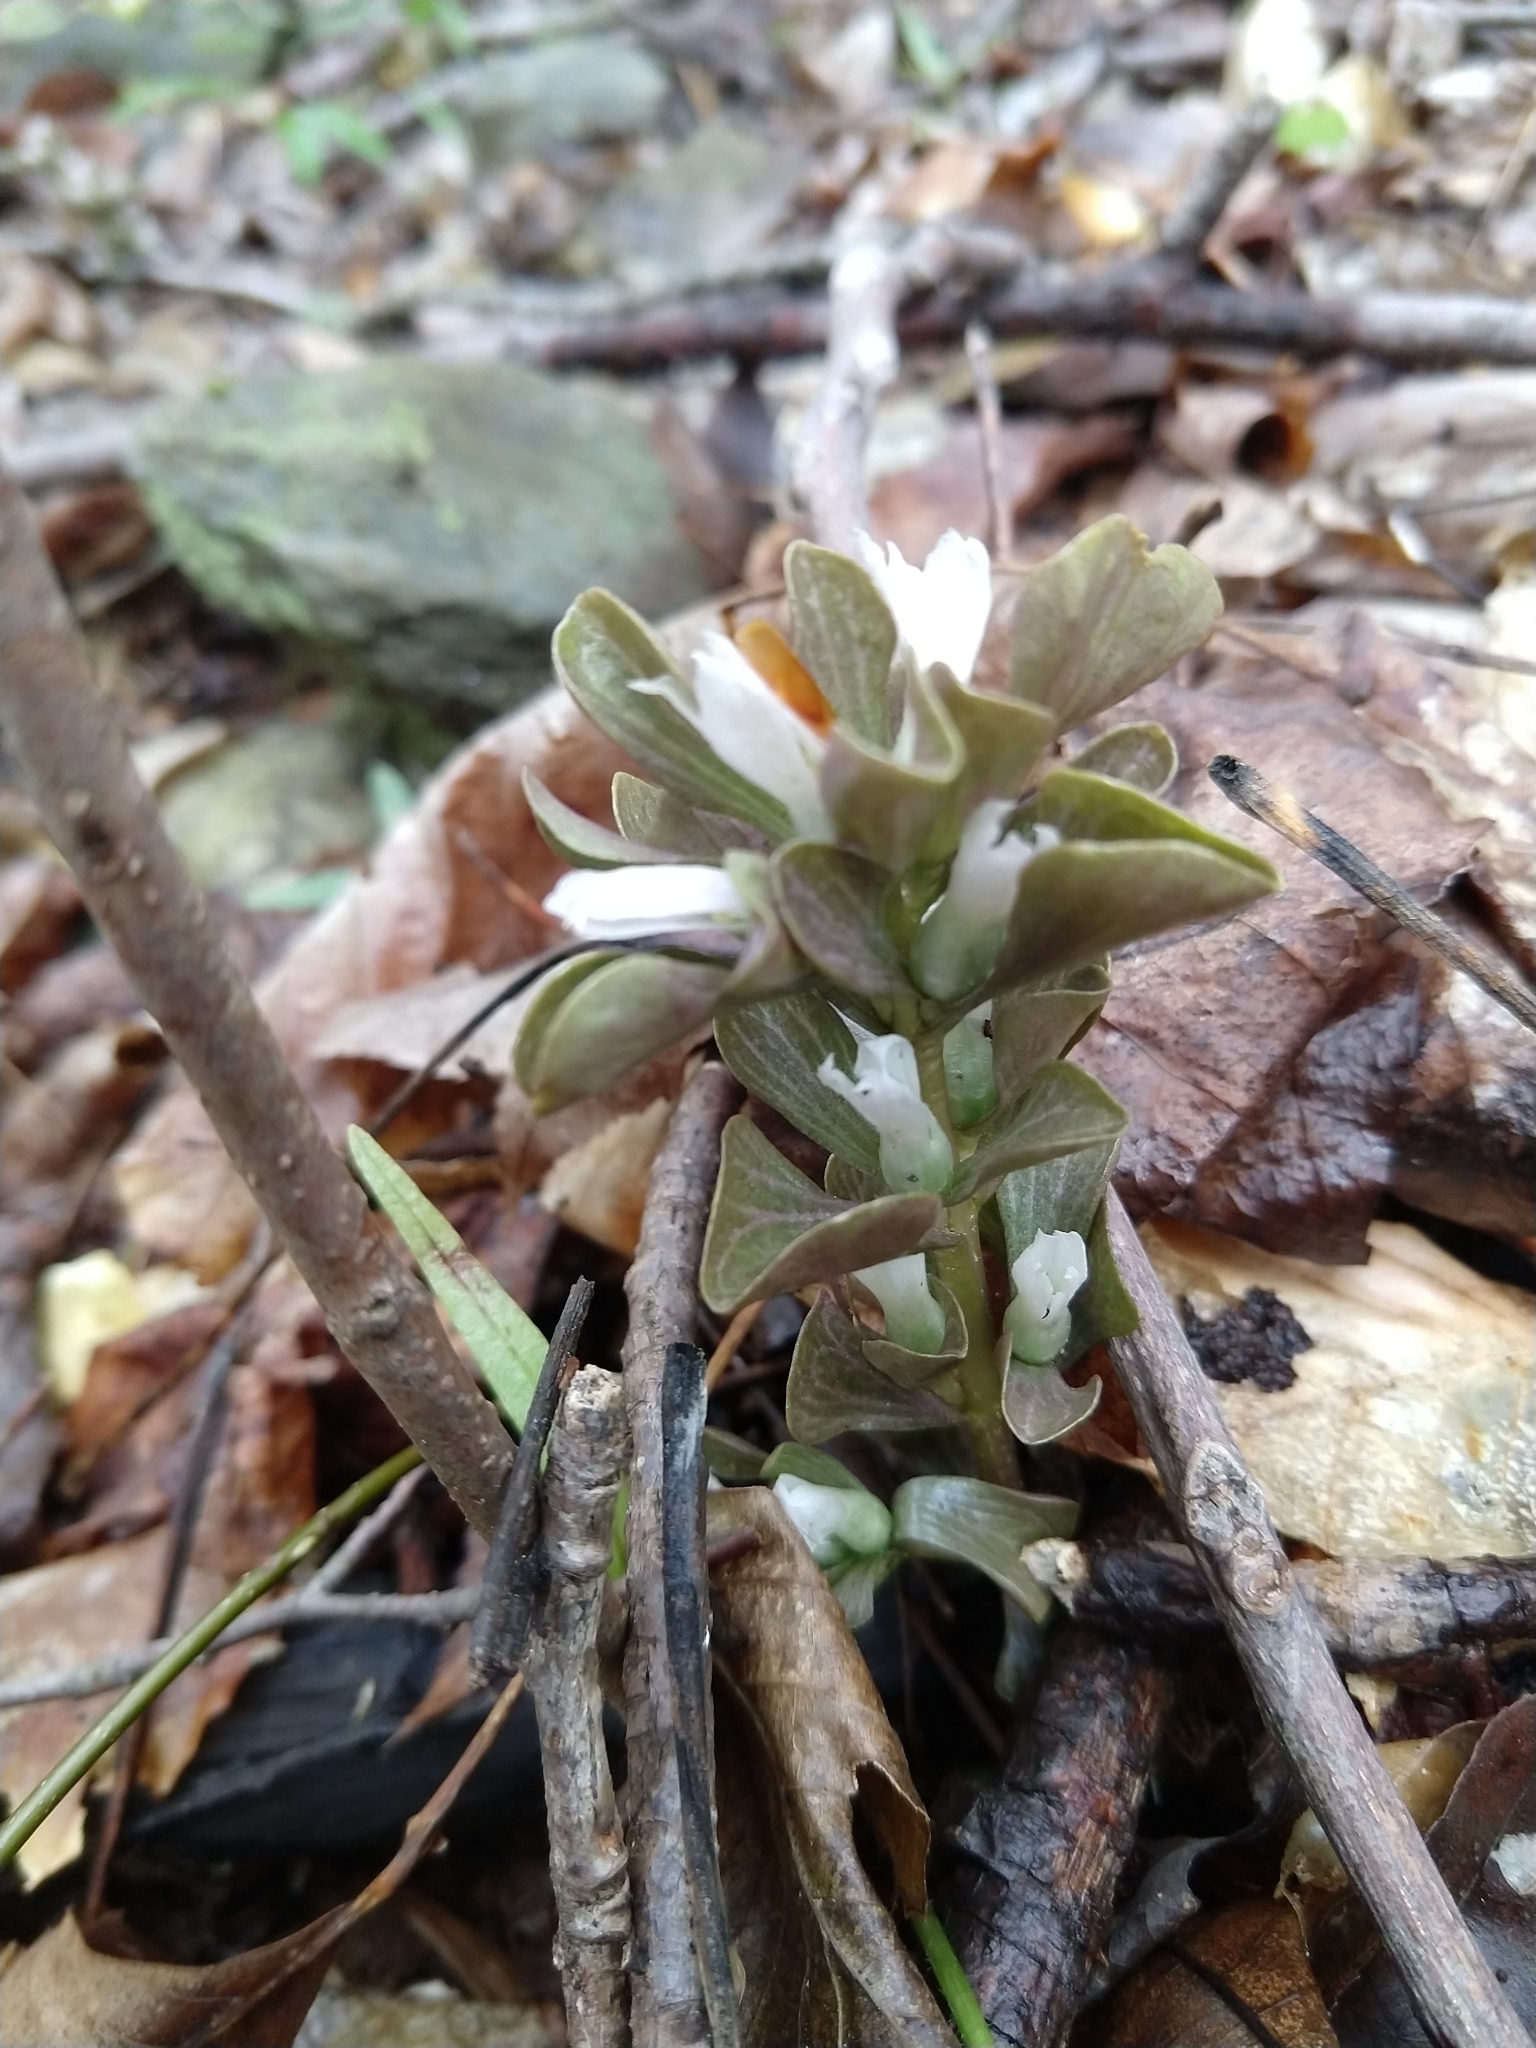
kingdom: Plantae
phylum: Tracheophyta
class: Magnoliopsida
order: Gentianales
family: Gentianaceae
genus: Obolaria
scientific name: Obolaria virginica
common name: Pennywort
